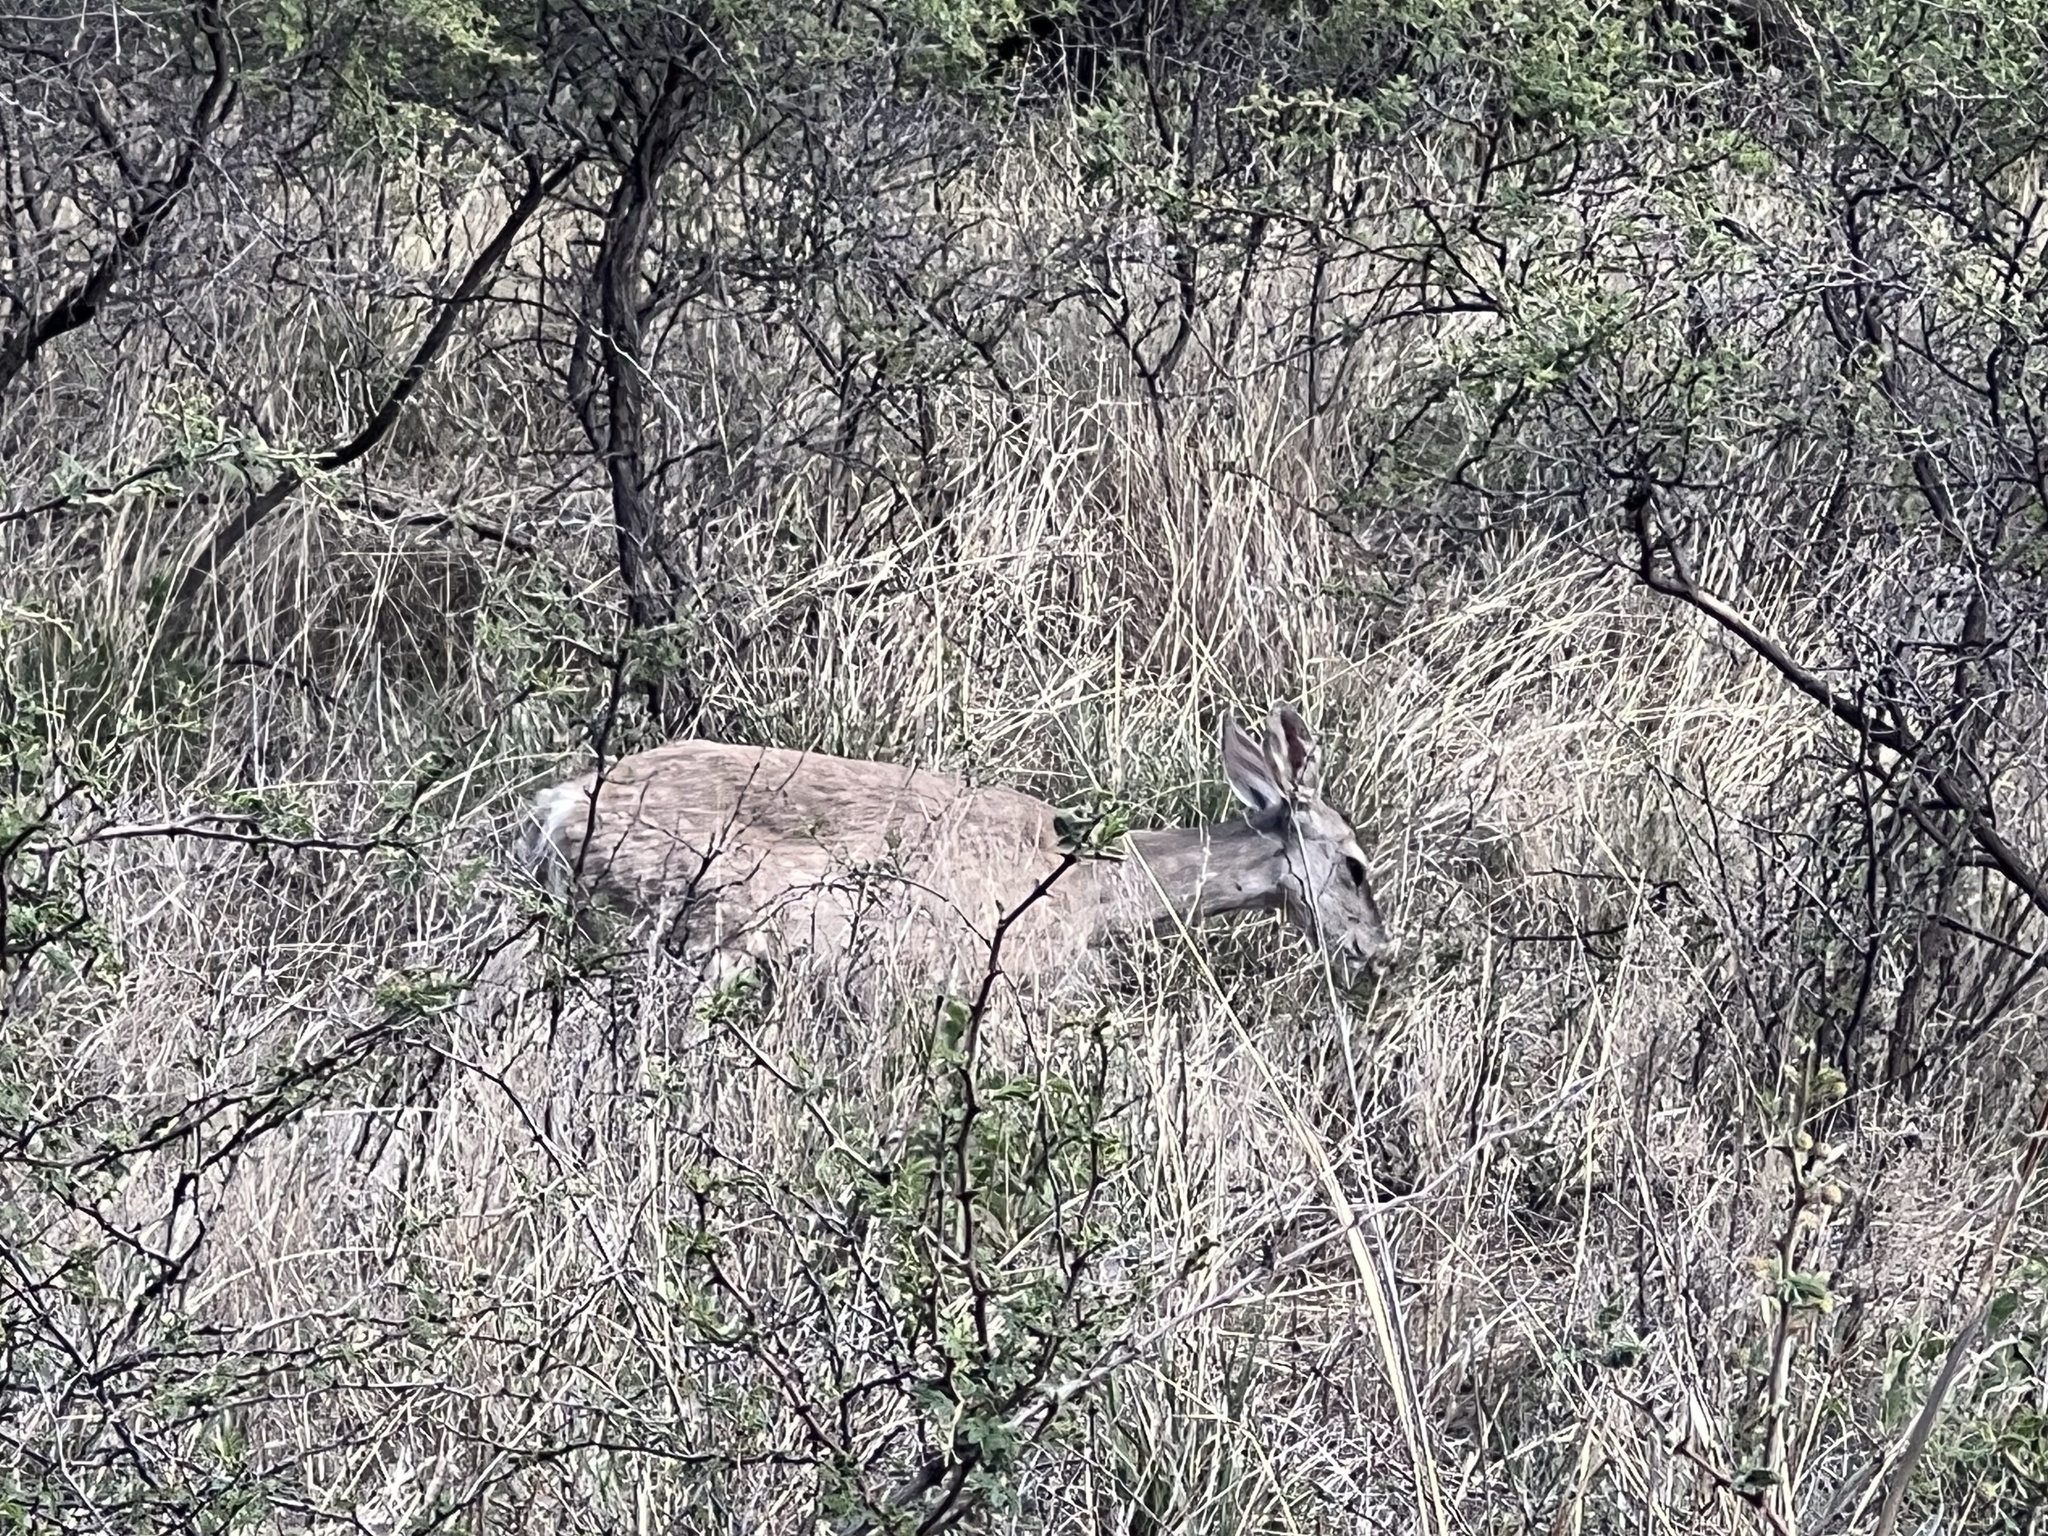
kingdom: Animalia
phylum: Chordata
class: Mammalia
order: Artiodactyla
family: Cervidae
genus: Odocoileus
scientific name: Odocoileus virginianus
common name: White-tailed deer
